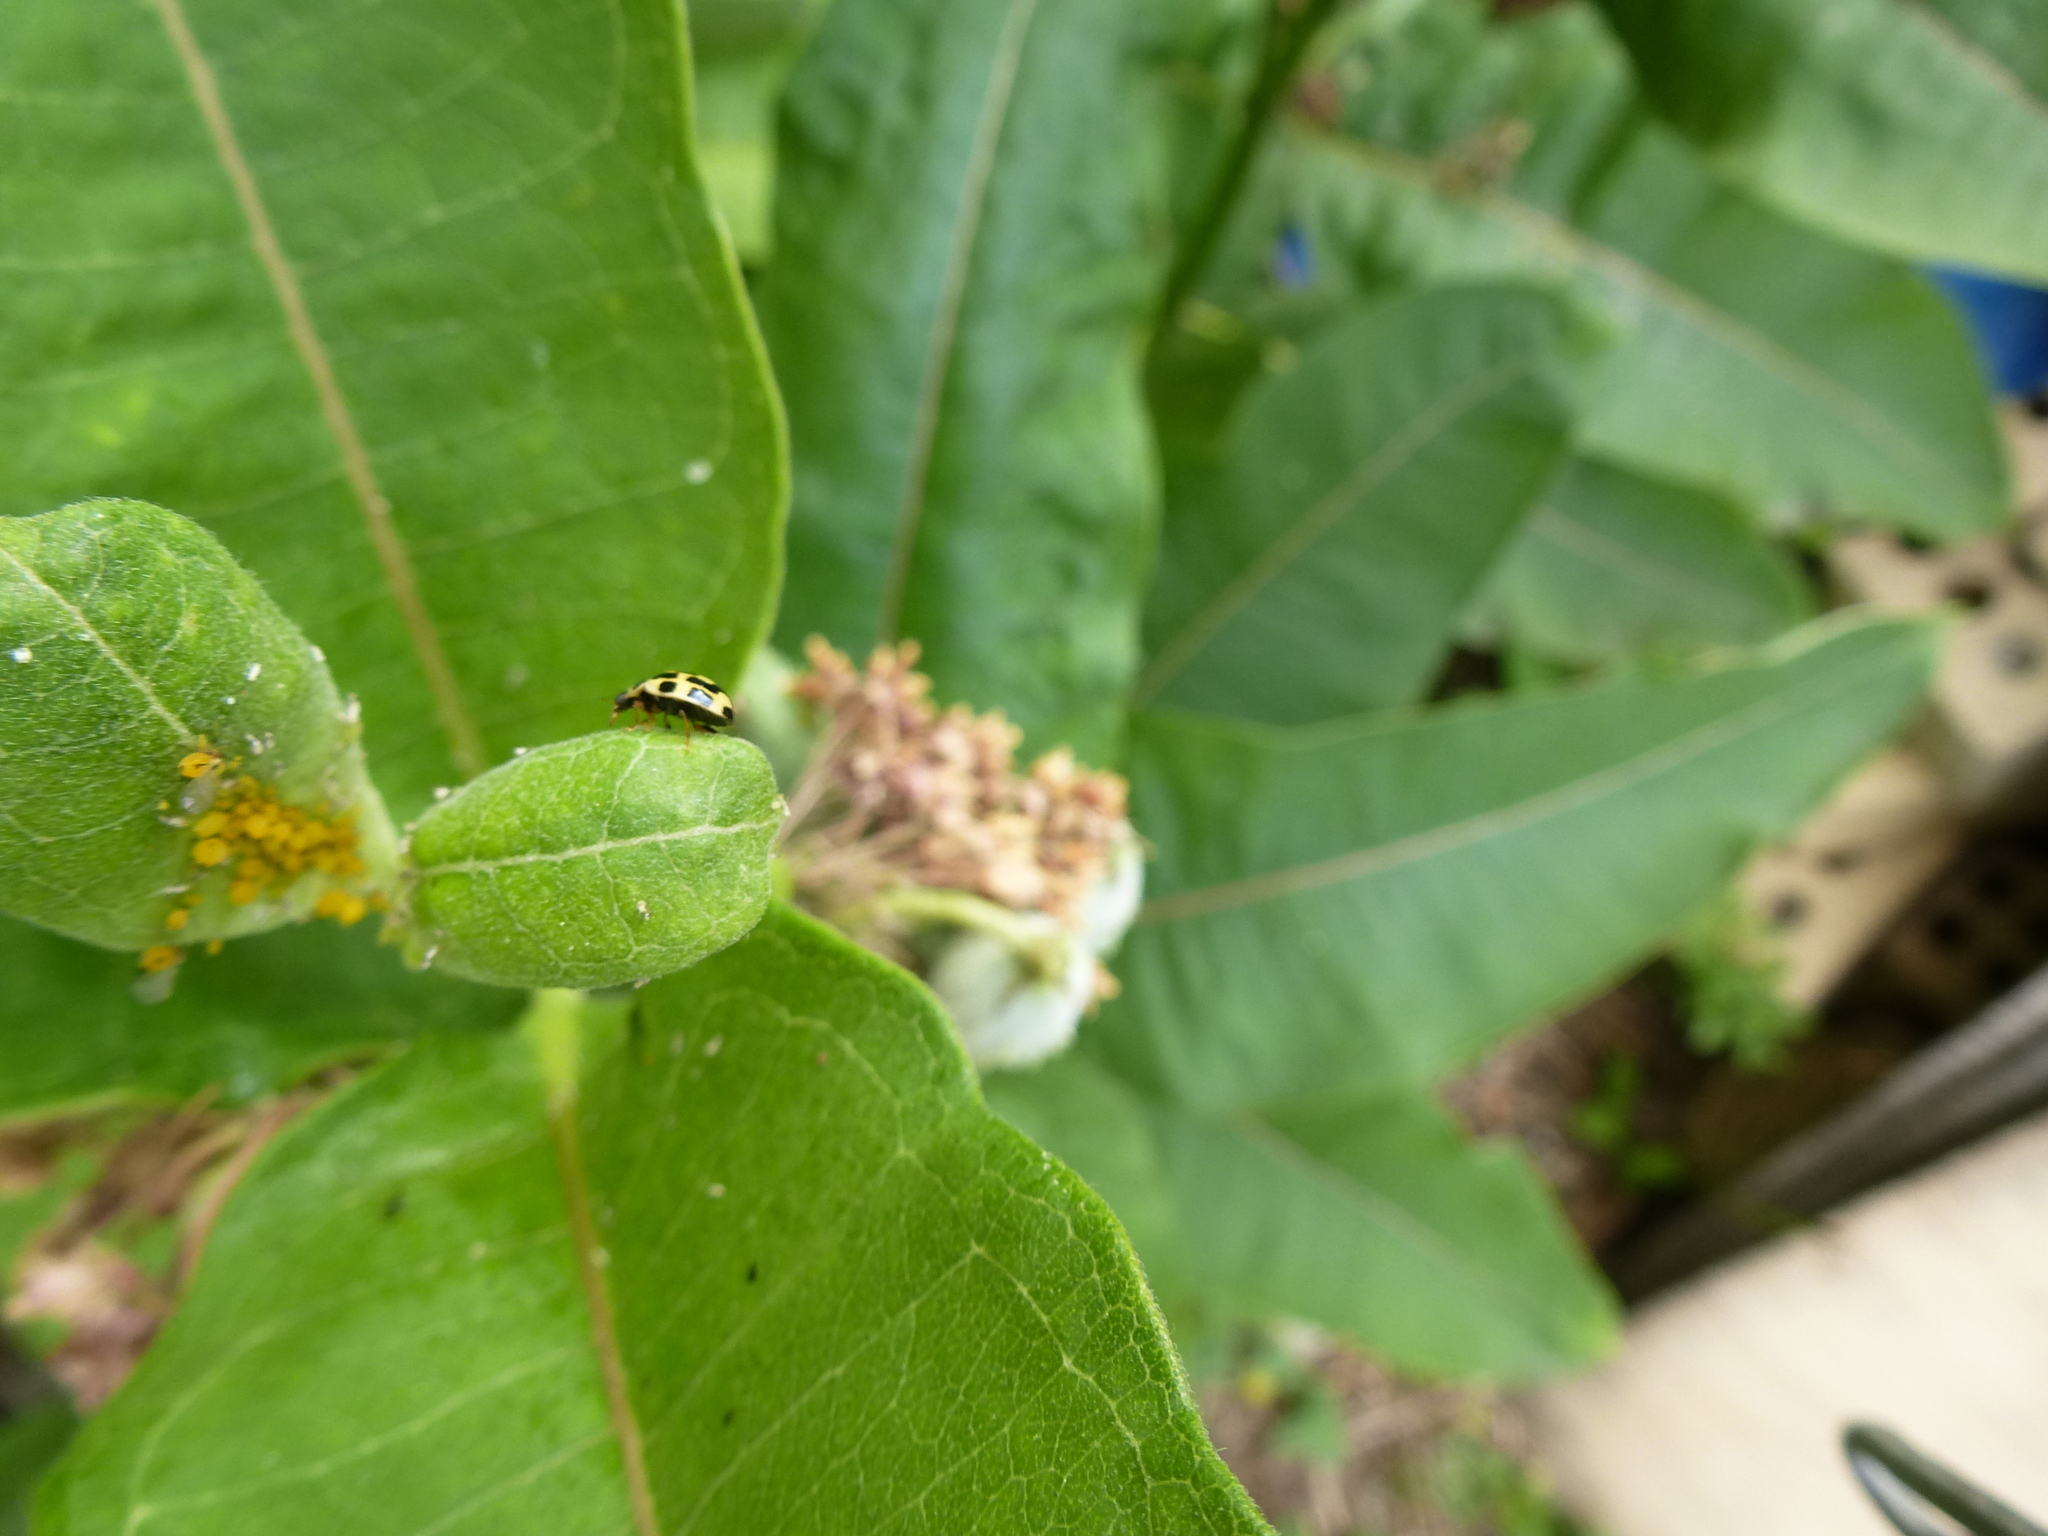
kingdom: Animalia
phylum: Arthropoda
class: Insecta
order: Coleoptera
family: Coccinellidae
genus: Propylaea
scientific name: Propylaea quatuordecimpunctata
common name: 14-spotted ladybird beetle
